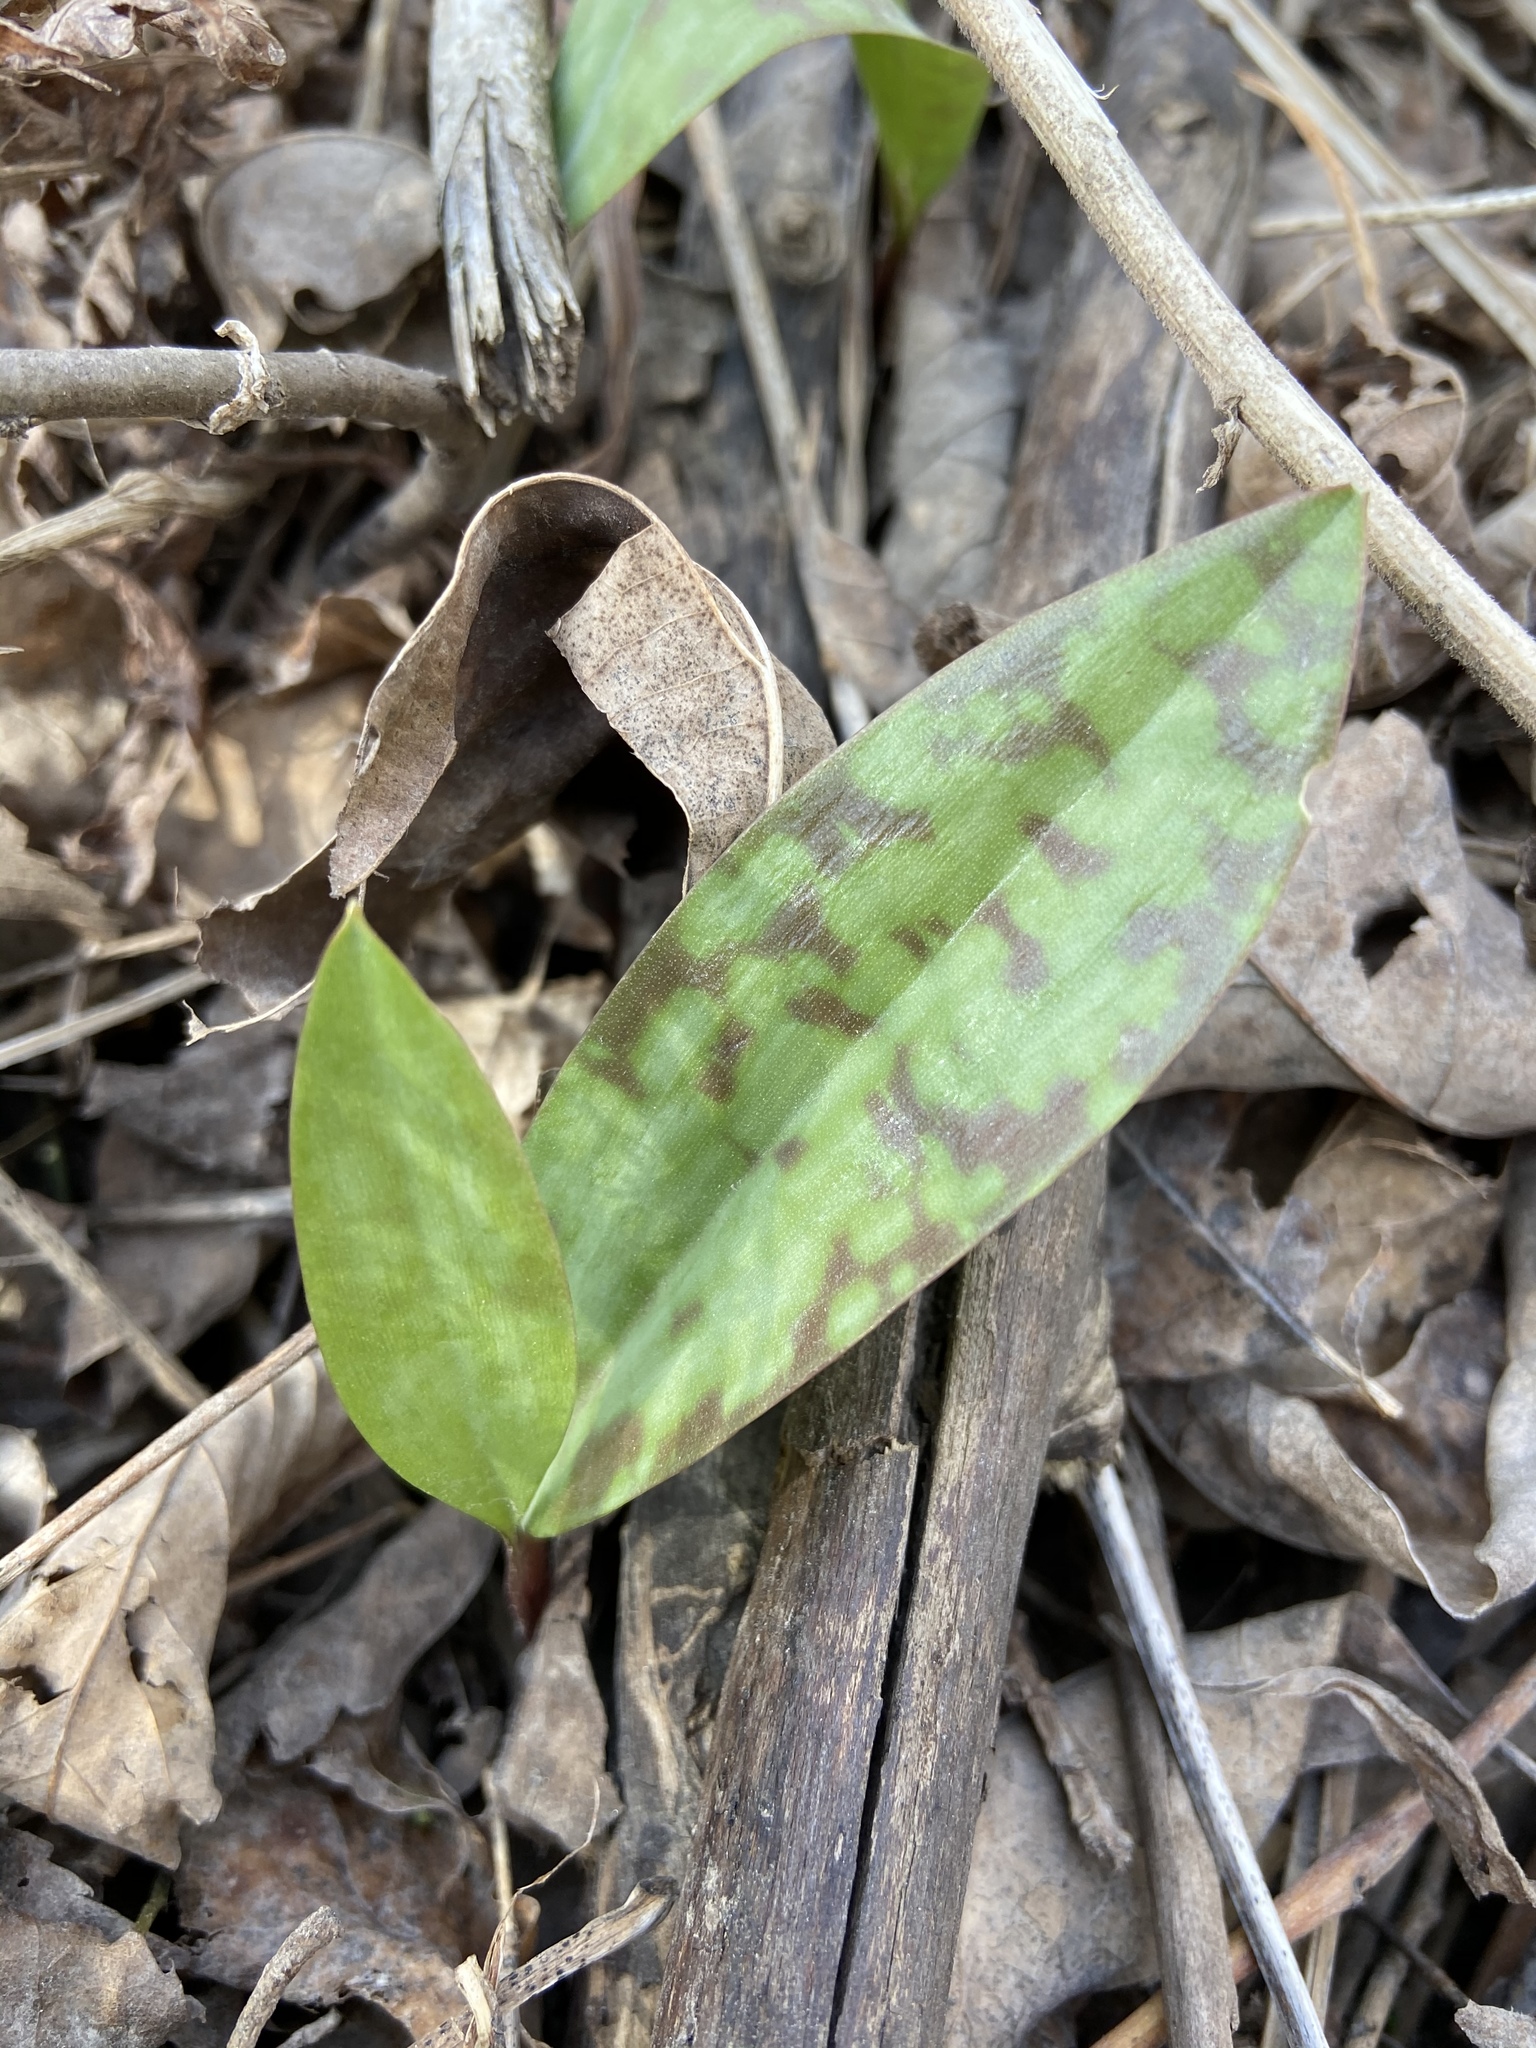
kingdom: Plantae
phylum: Tracheophyta
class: Liliopsida
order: Liliales
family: Liliaceae
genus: Erythronium
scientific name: Erythronium americanum
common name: Yellow adder's-tongue
